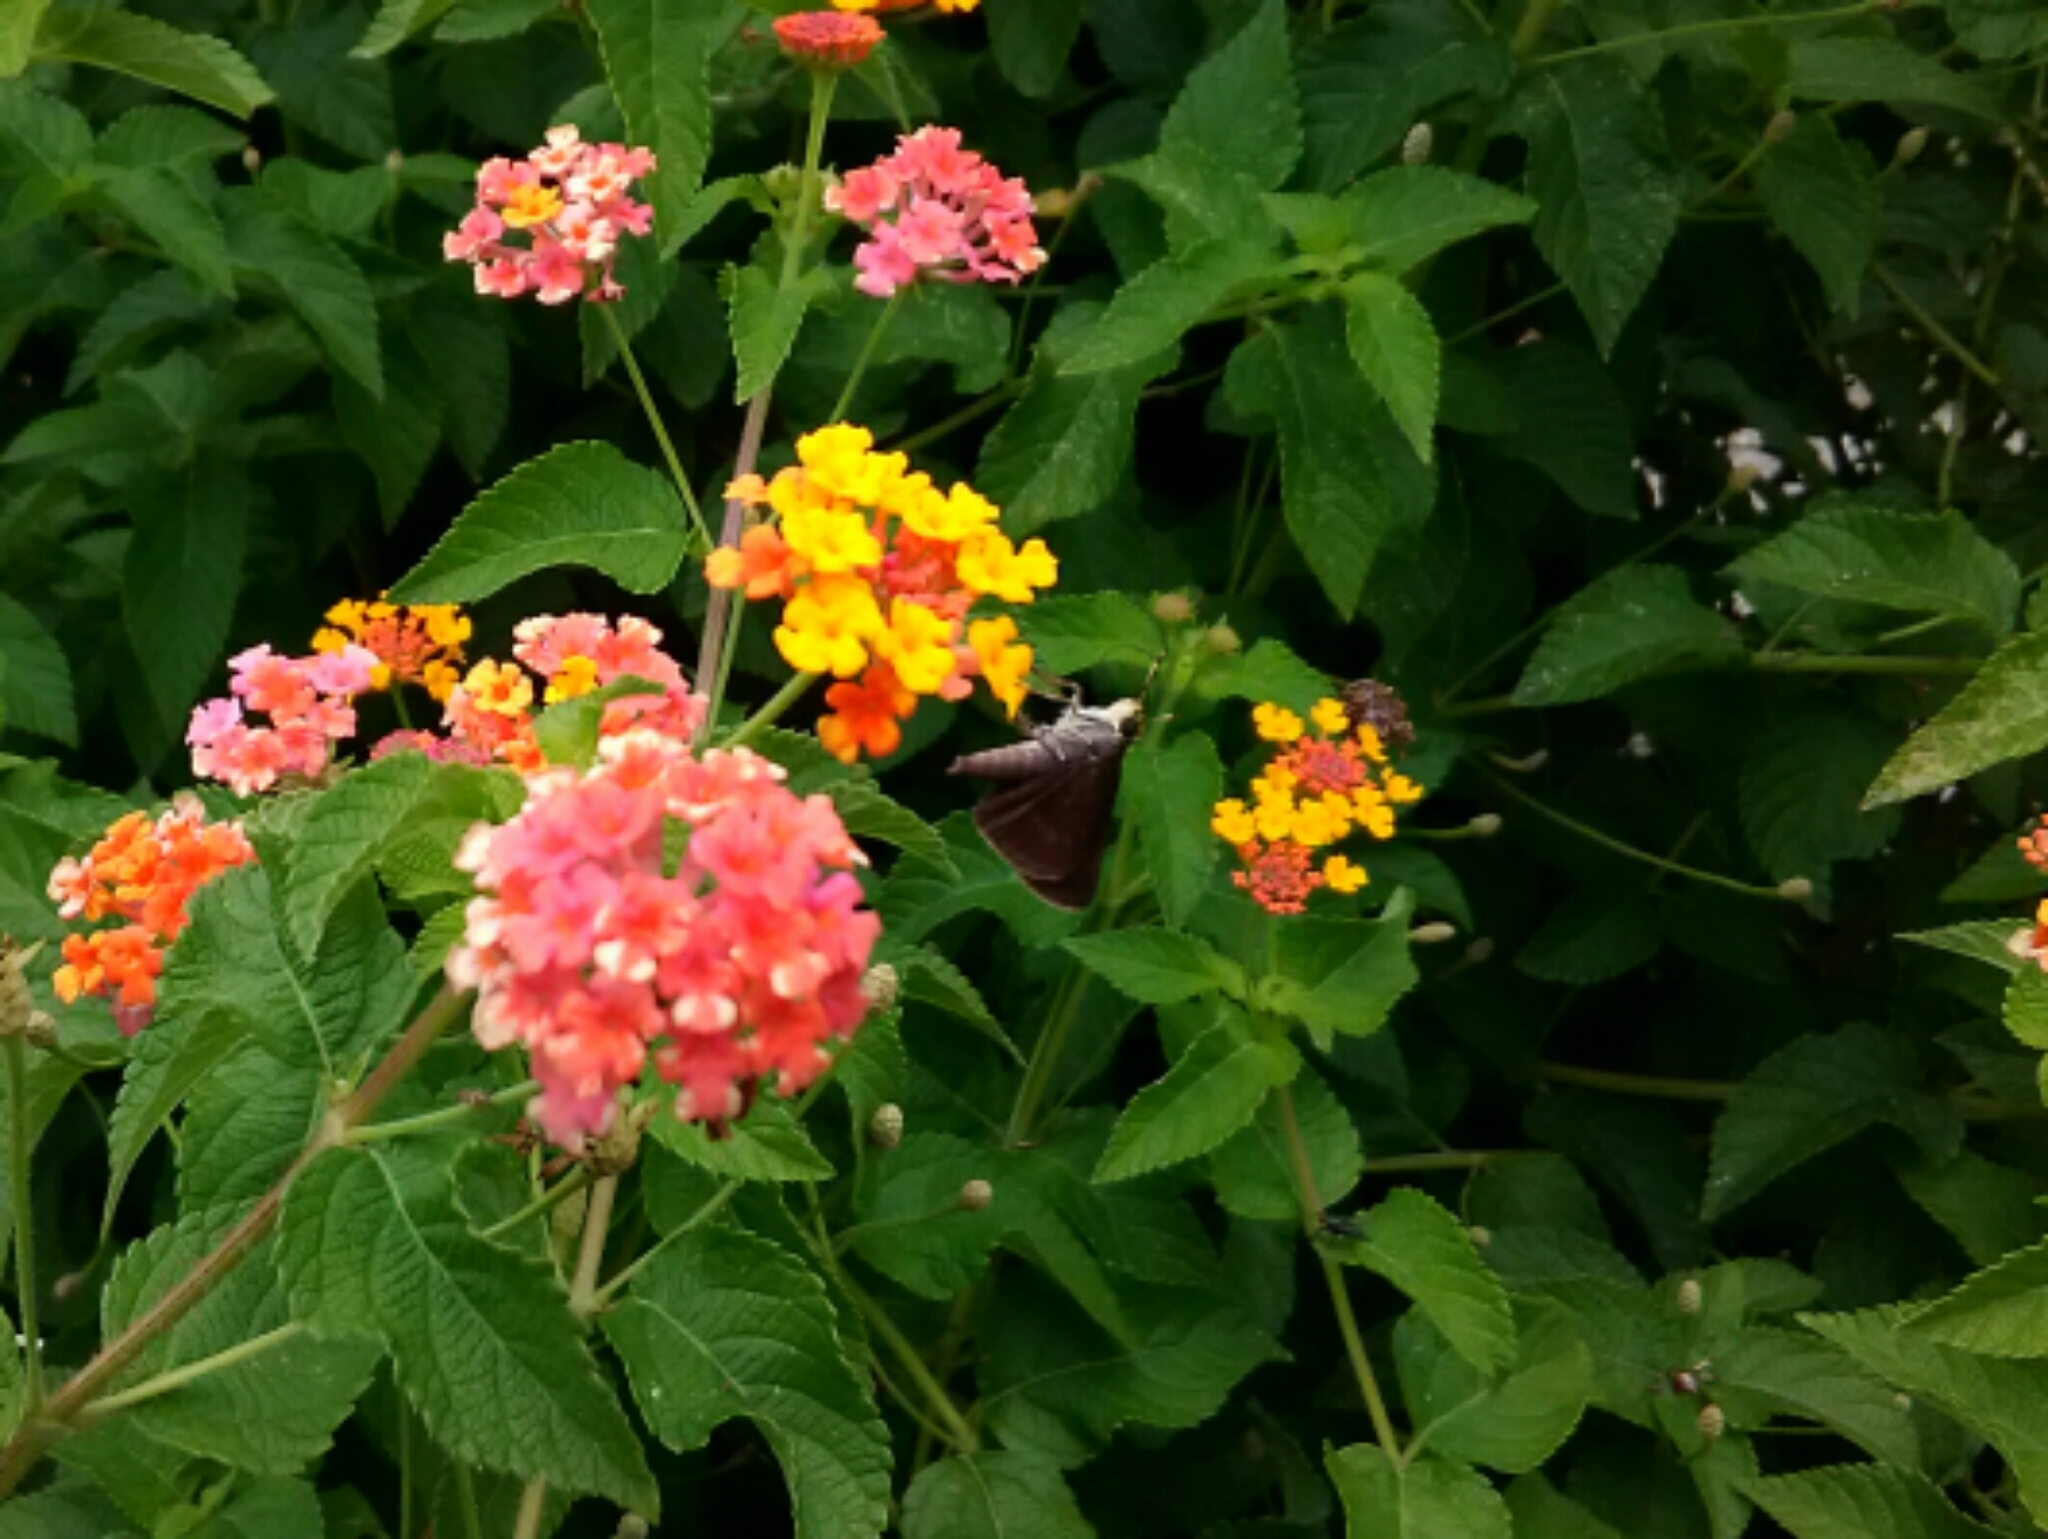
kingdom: Animalia
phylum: Arthropoda
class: Insecta
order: Lepidoptera
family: Hesperiidae
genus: Euphyes
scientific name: Euphyes vestris
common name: Dun skipper
